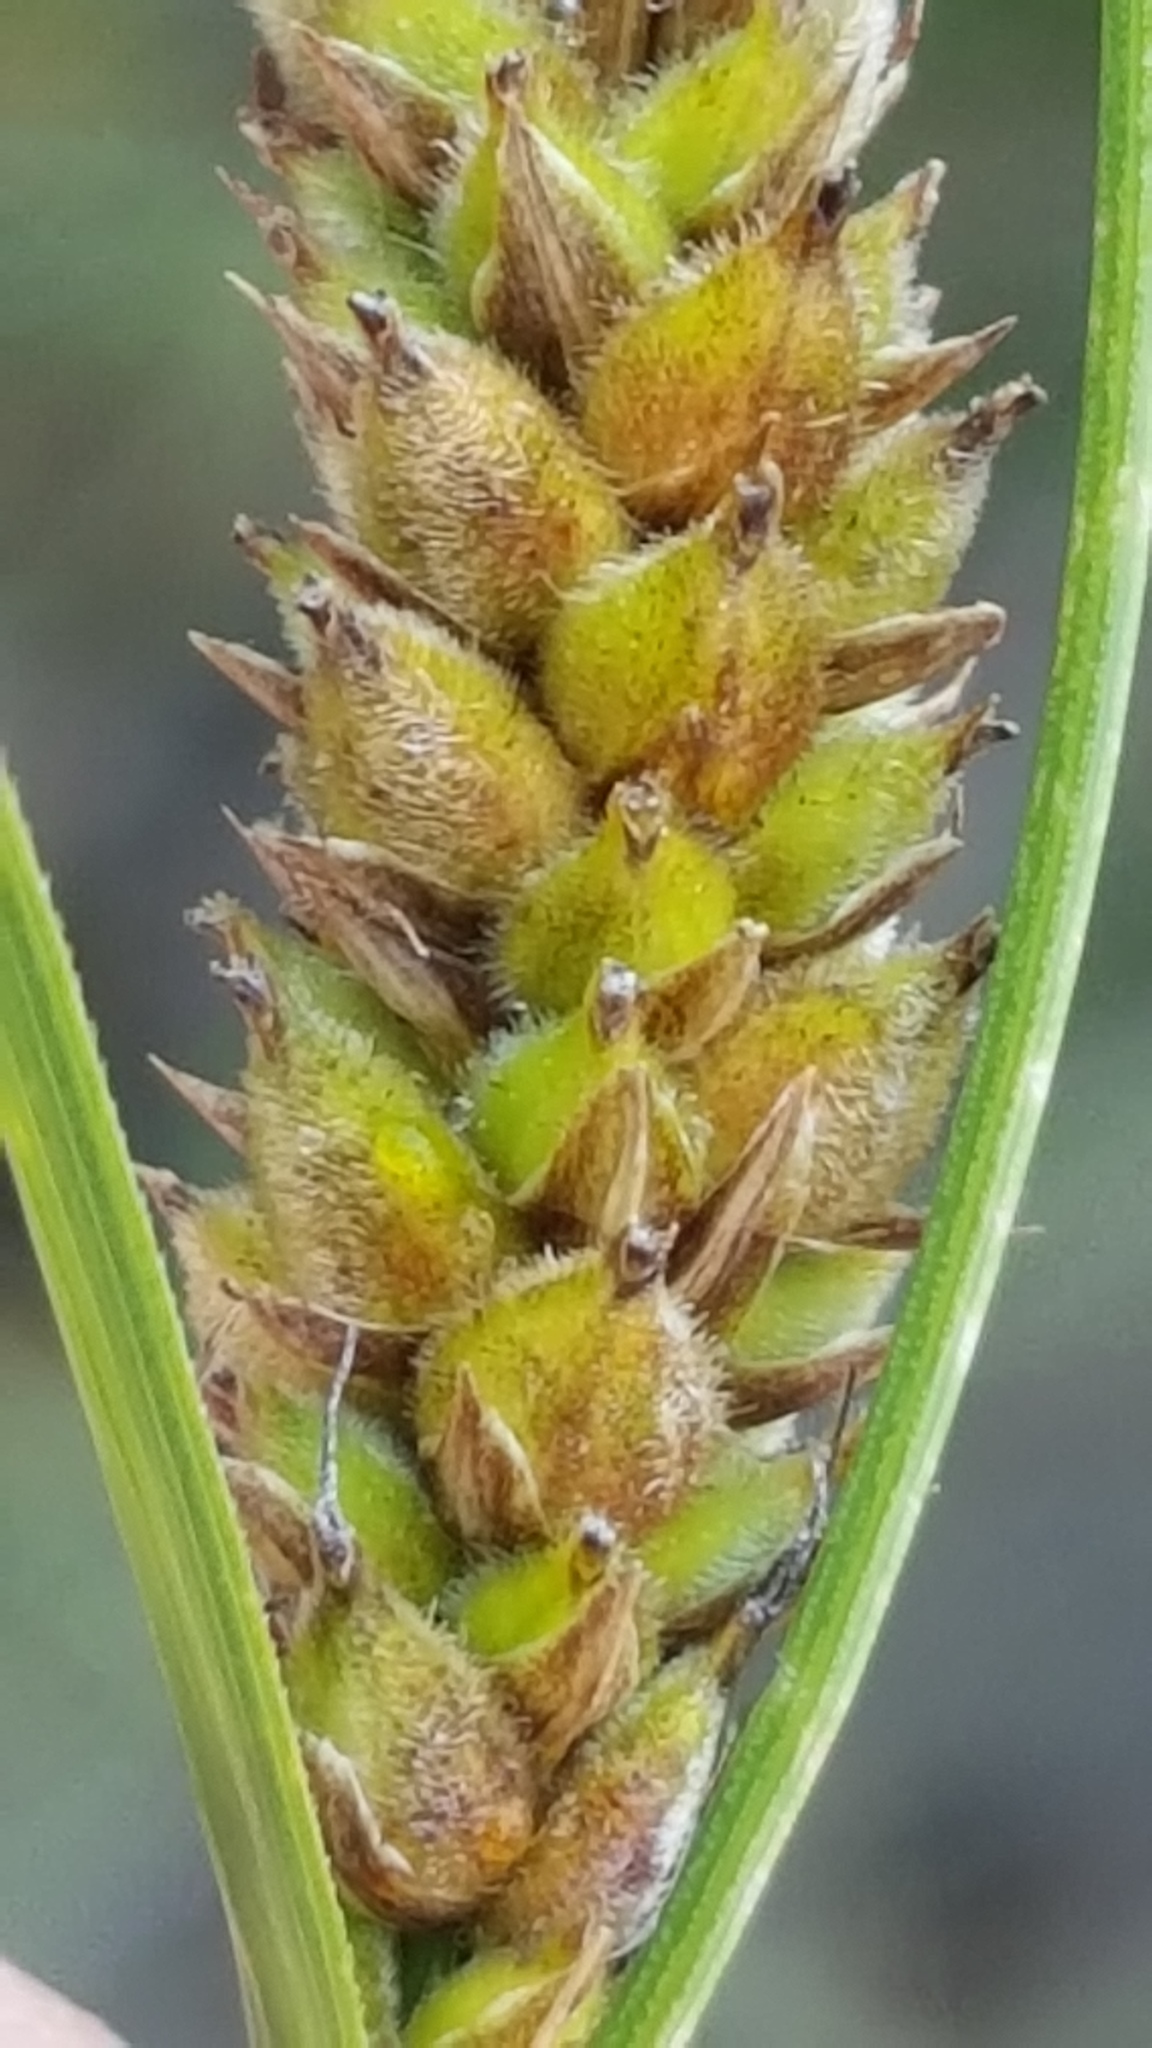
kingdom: Plantae
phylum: Tracheophyta
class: Liliopsida
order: Poales
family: Cyperaceae
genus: Carex
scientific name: Carex lasiocarpa
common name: Slender sedge
